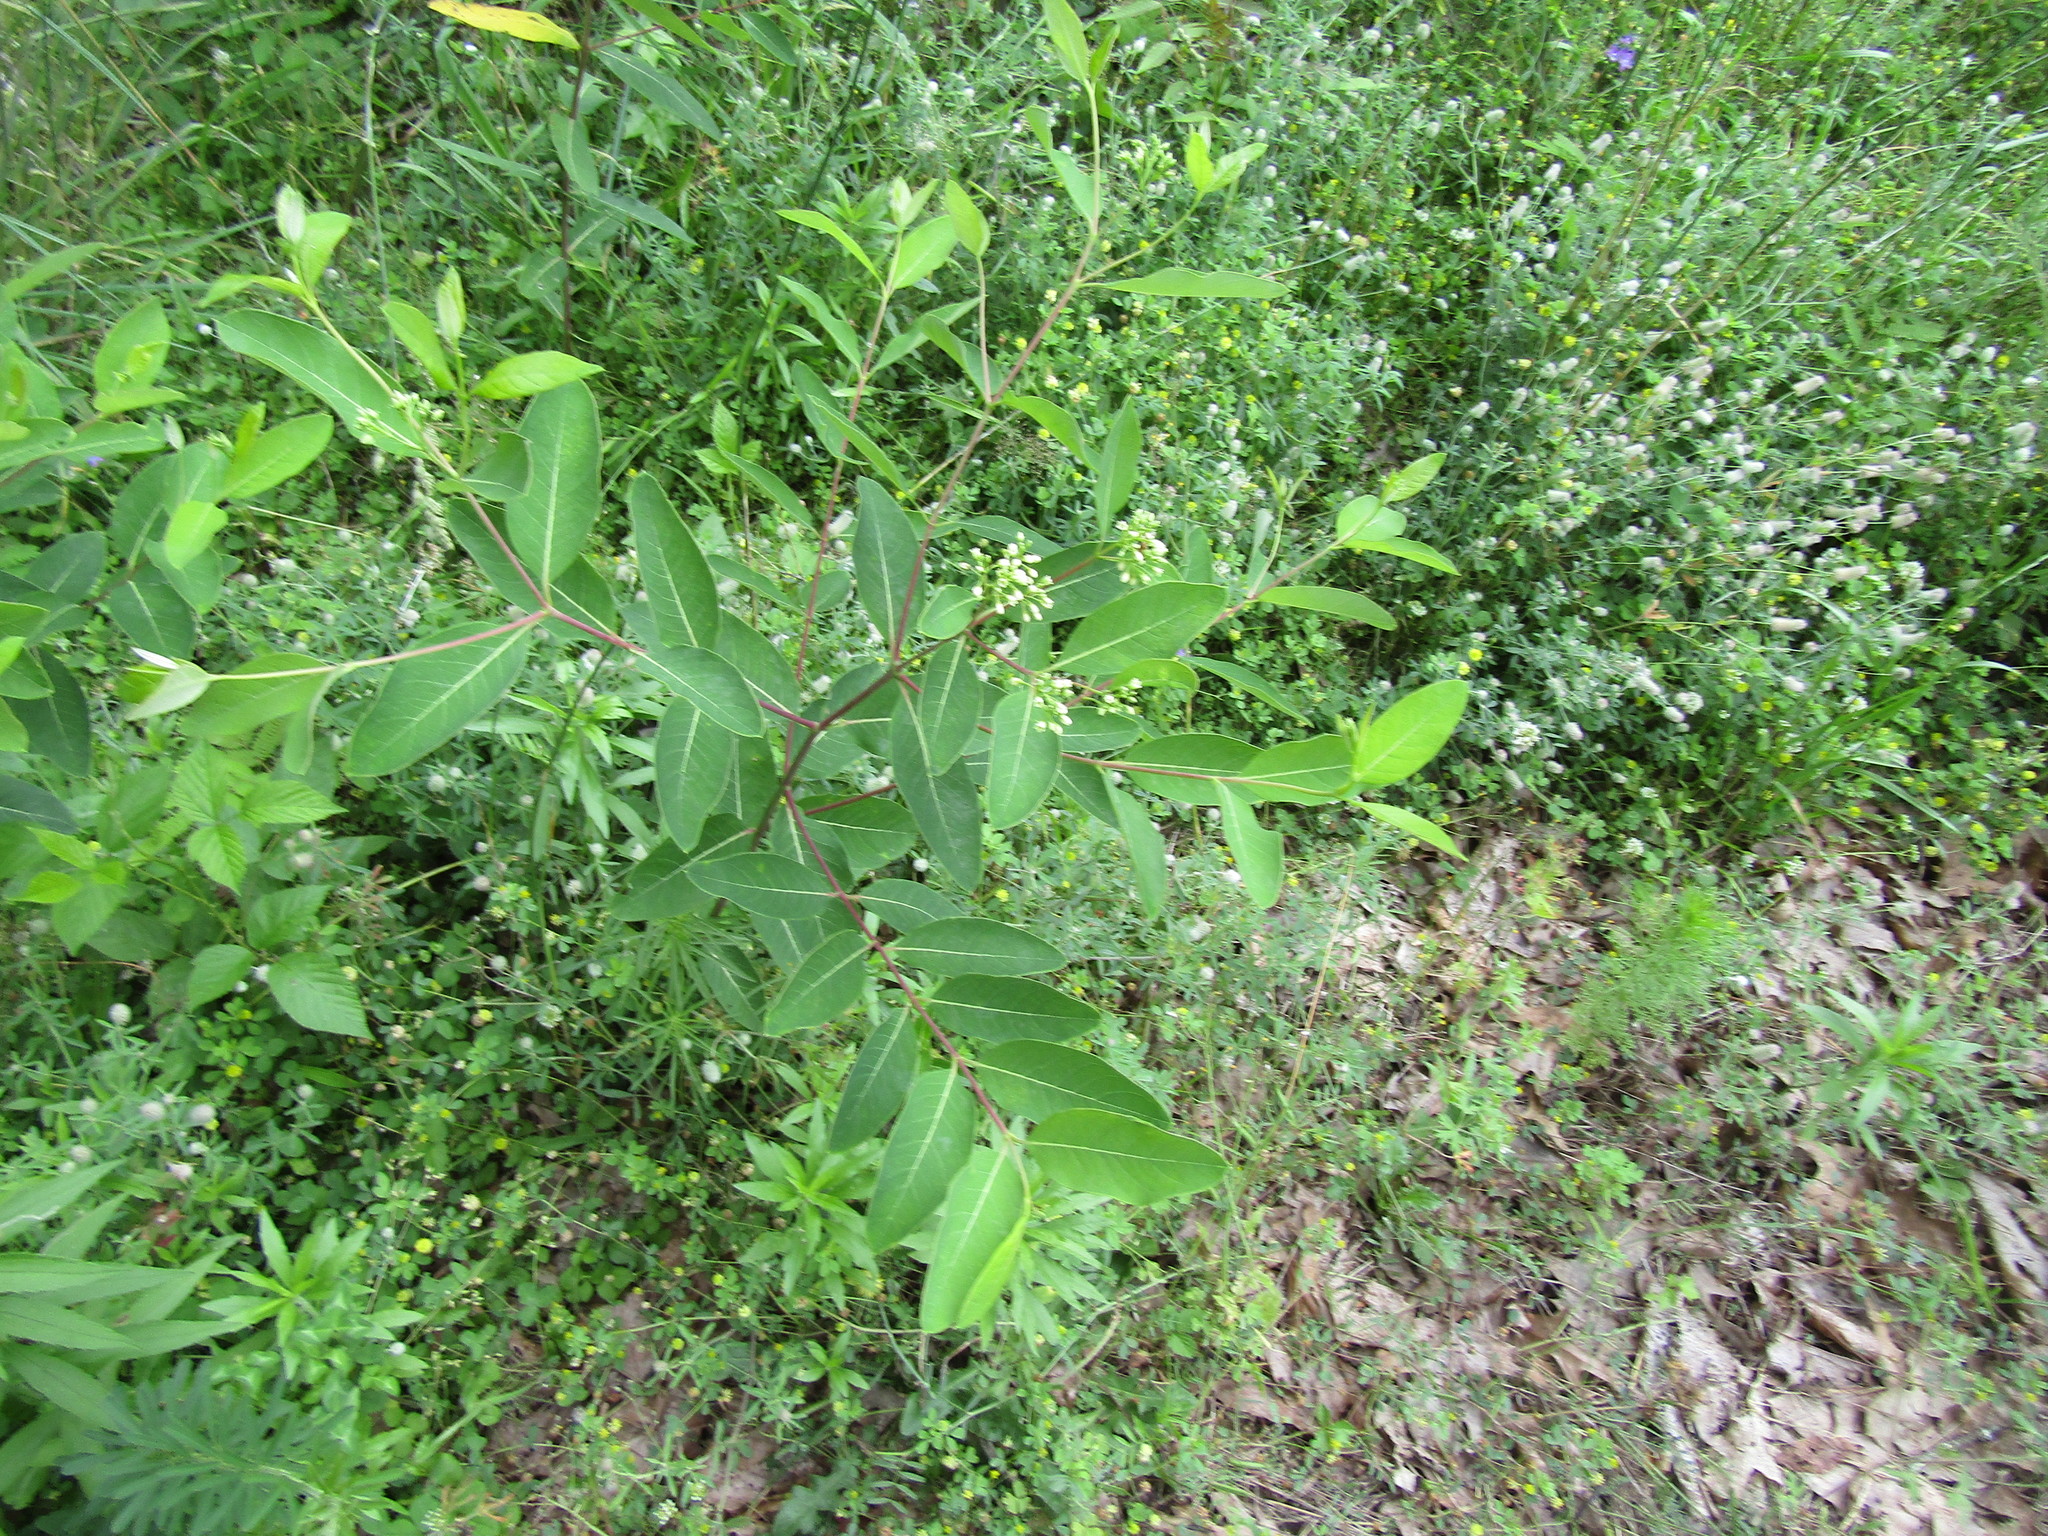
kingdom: Plantae
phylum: Tracheophyta
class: Magnoliopsida
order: Gentianales
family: Apocynaceae
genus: Apocynum
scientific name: Apocynum cannabinum
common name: Hemp dogbane
